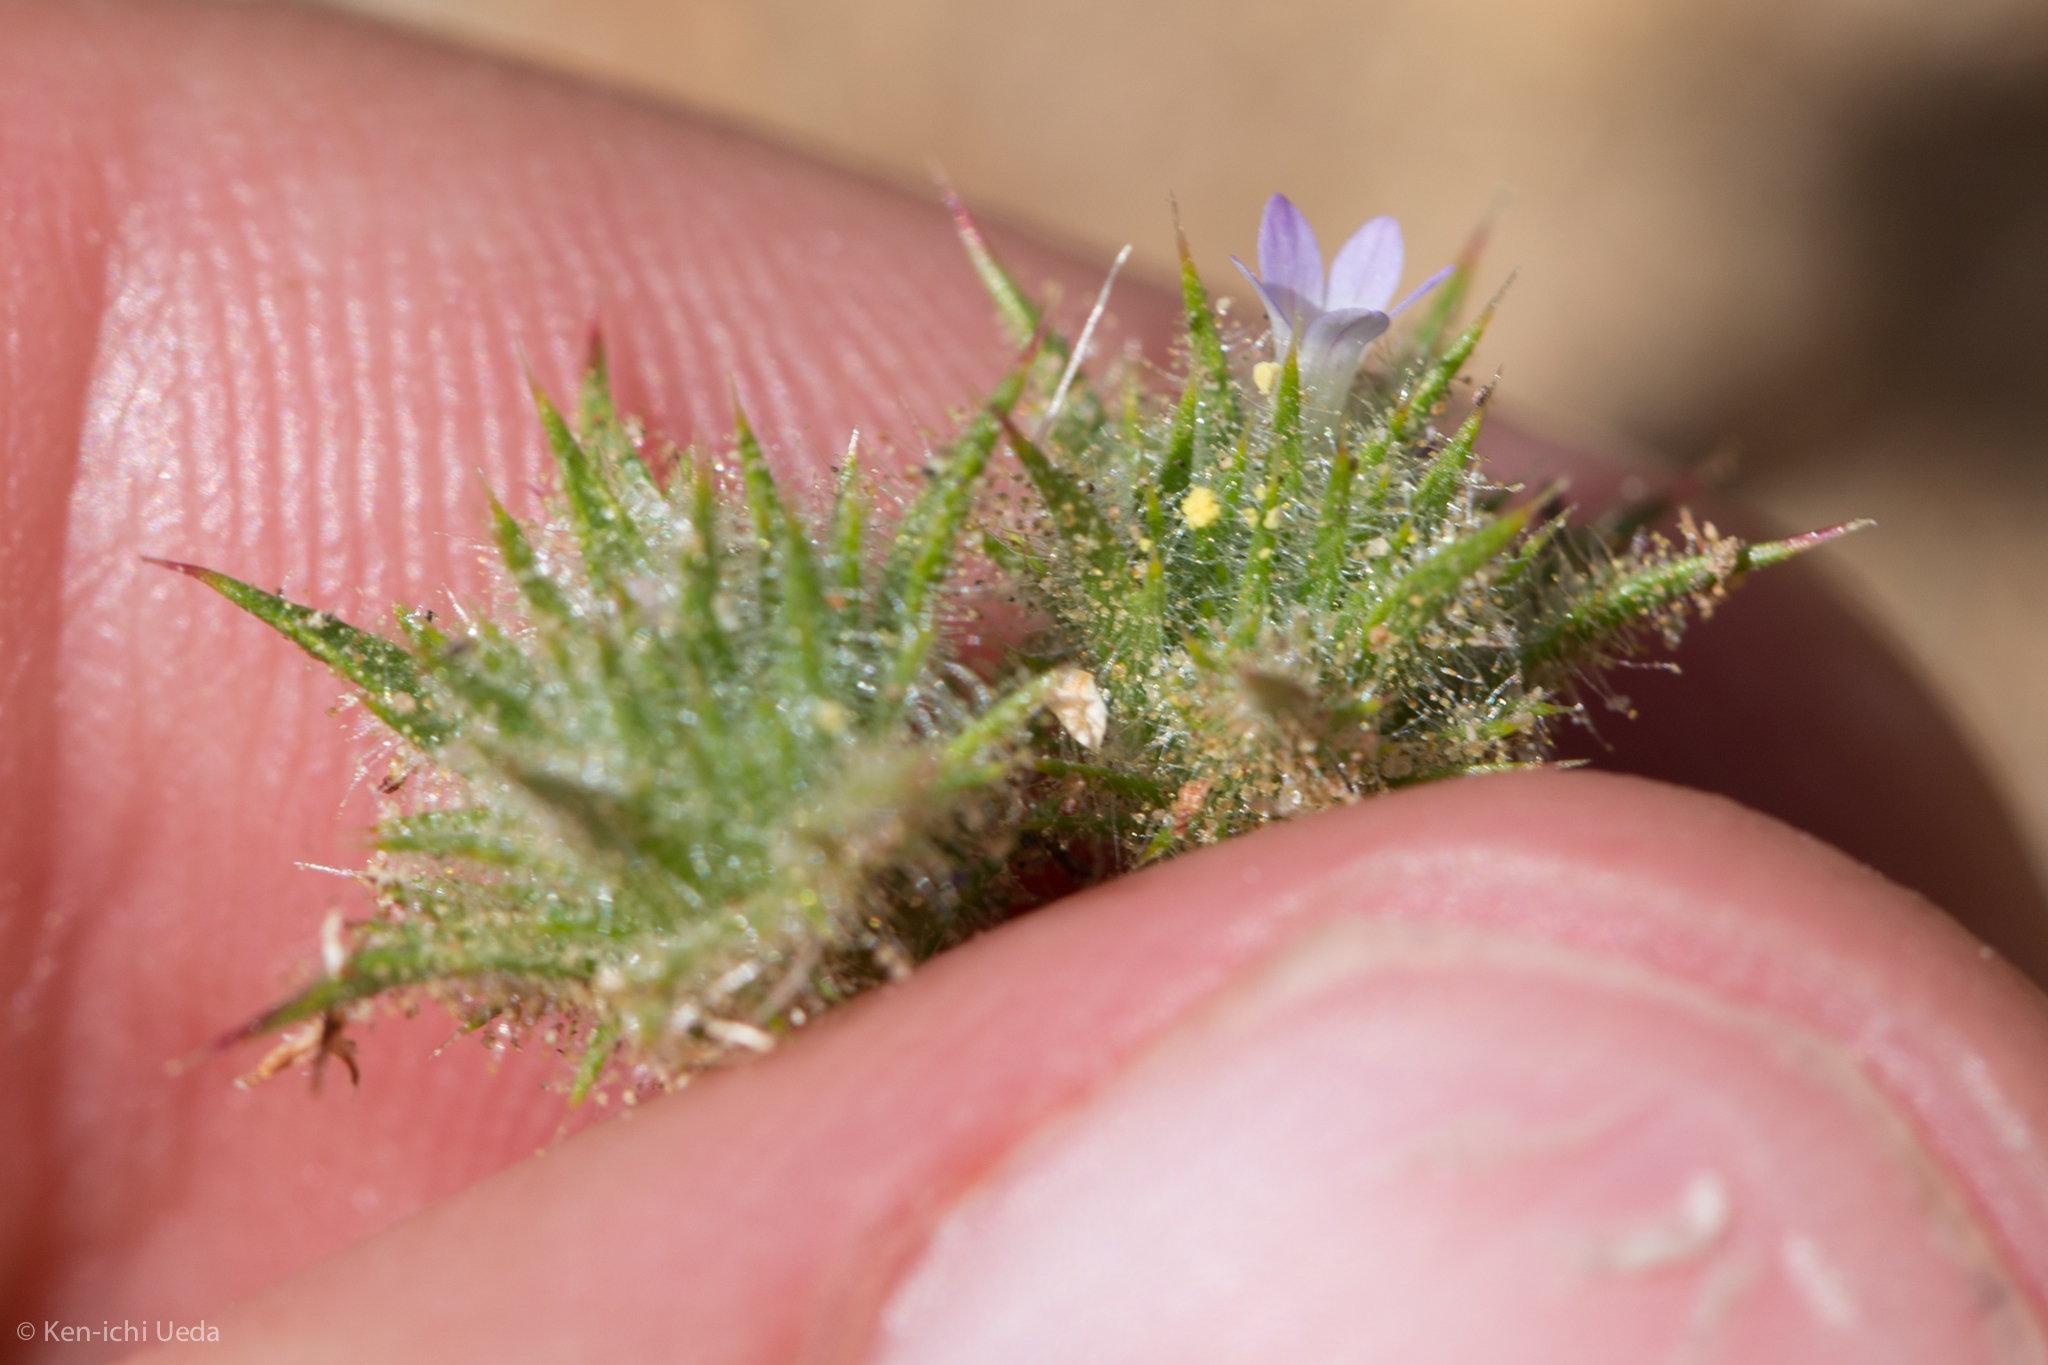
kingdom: Plantae
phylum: Tracheophyta
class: Magnoliopsida
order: Ericales
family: Polemoniaceae
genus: Navarretia
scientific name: Navarretia mellita
